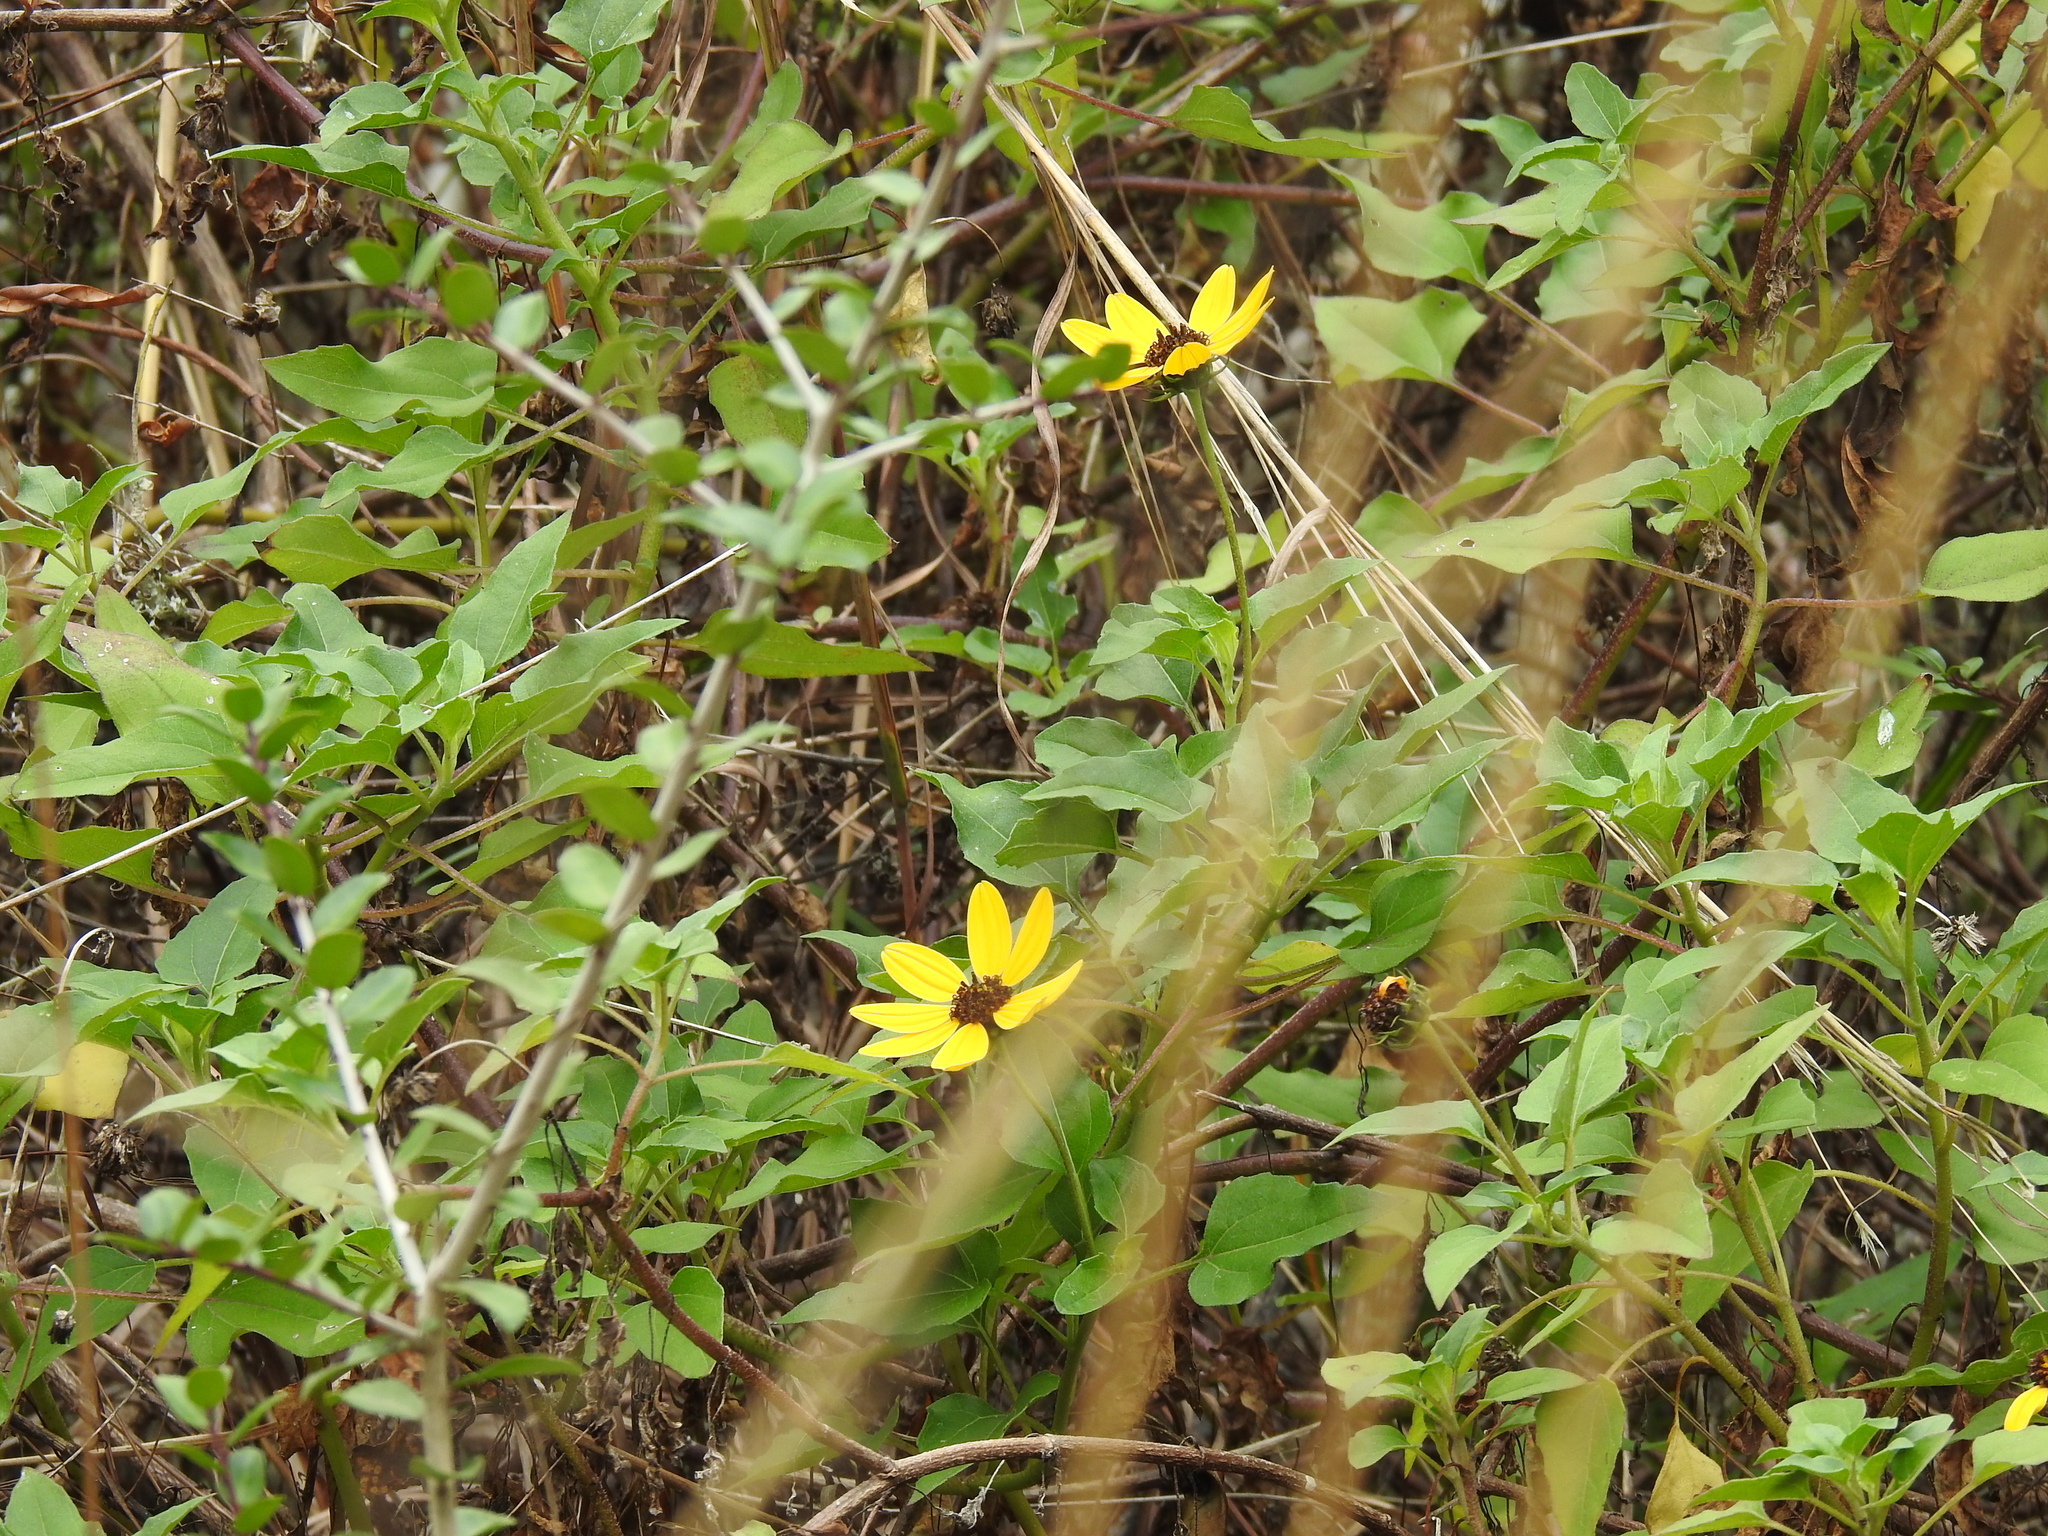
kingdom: Plantae
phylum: Tracheophyta
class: Magnoliopsida
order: Asterales
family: Asteraceae
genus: Helianthus
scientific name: Helianthus debilis
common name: Weak sunflower
